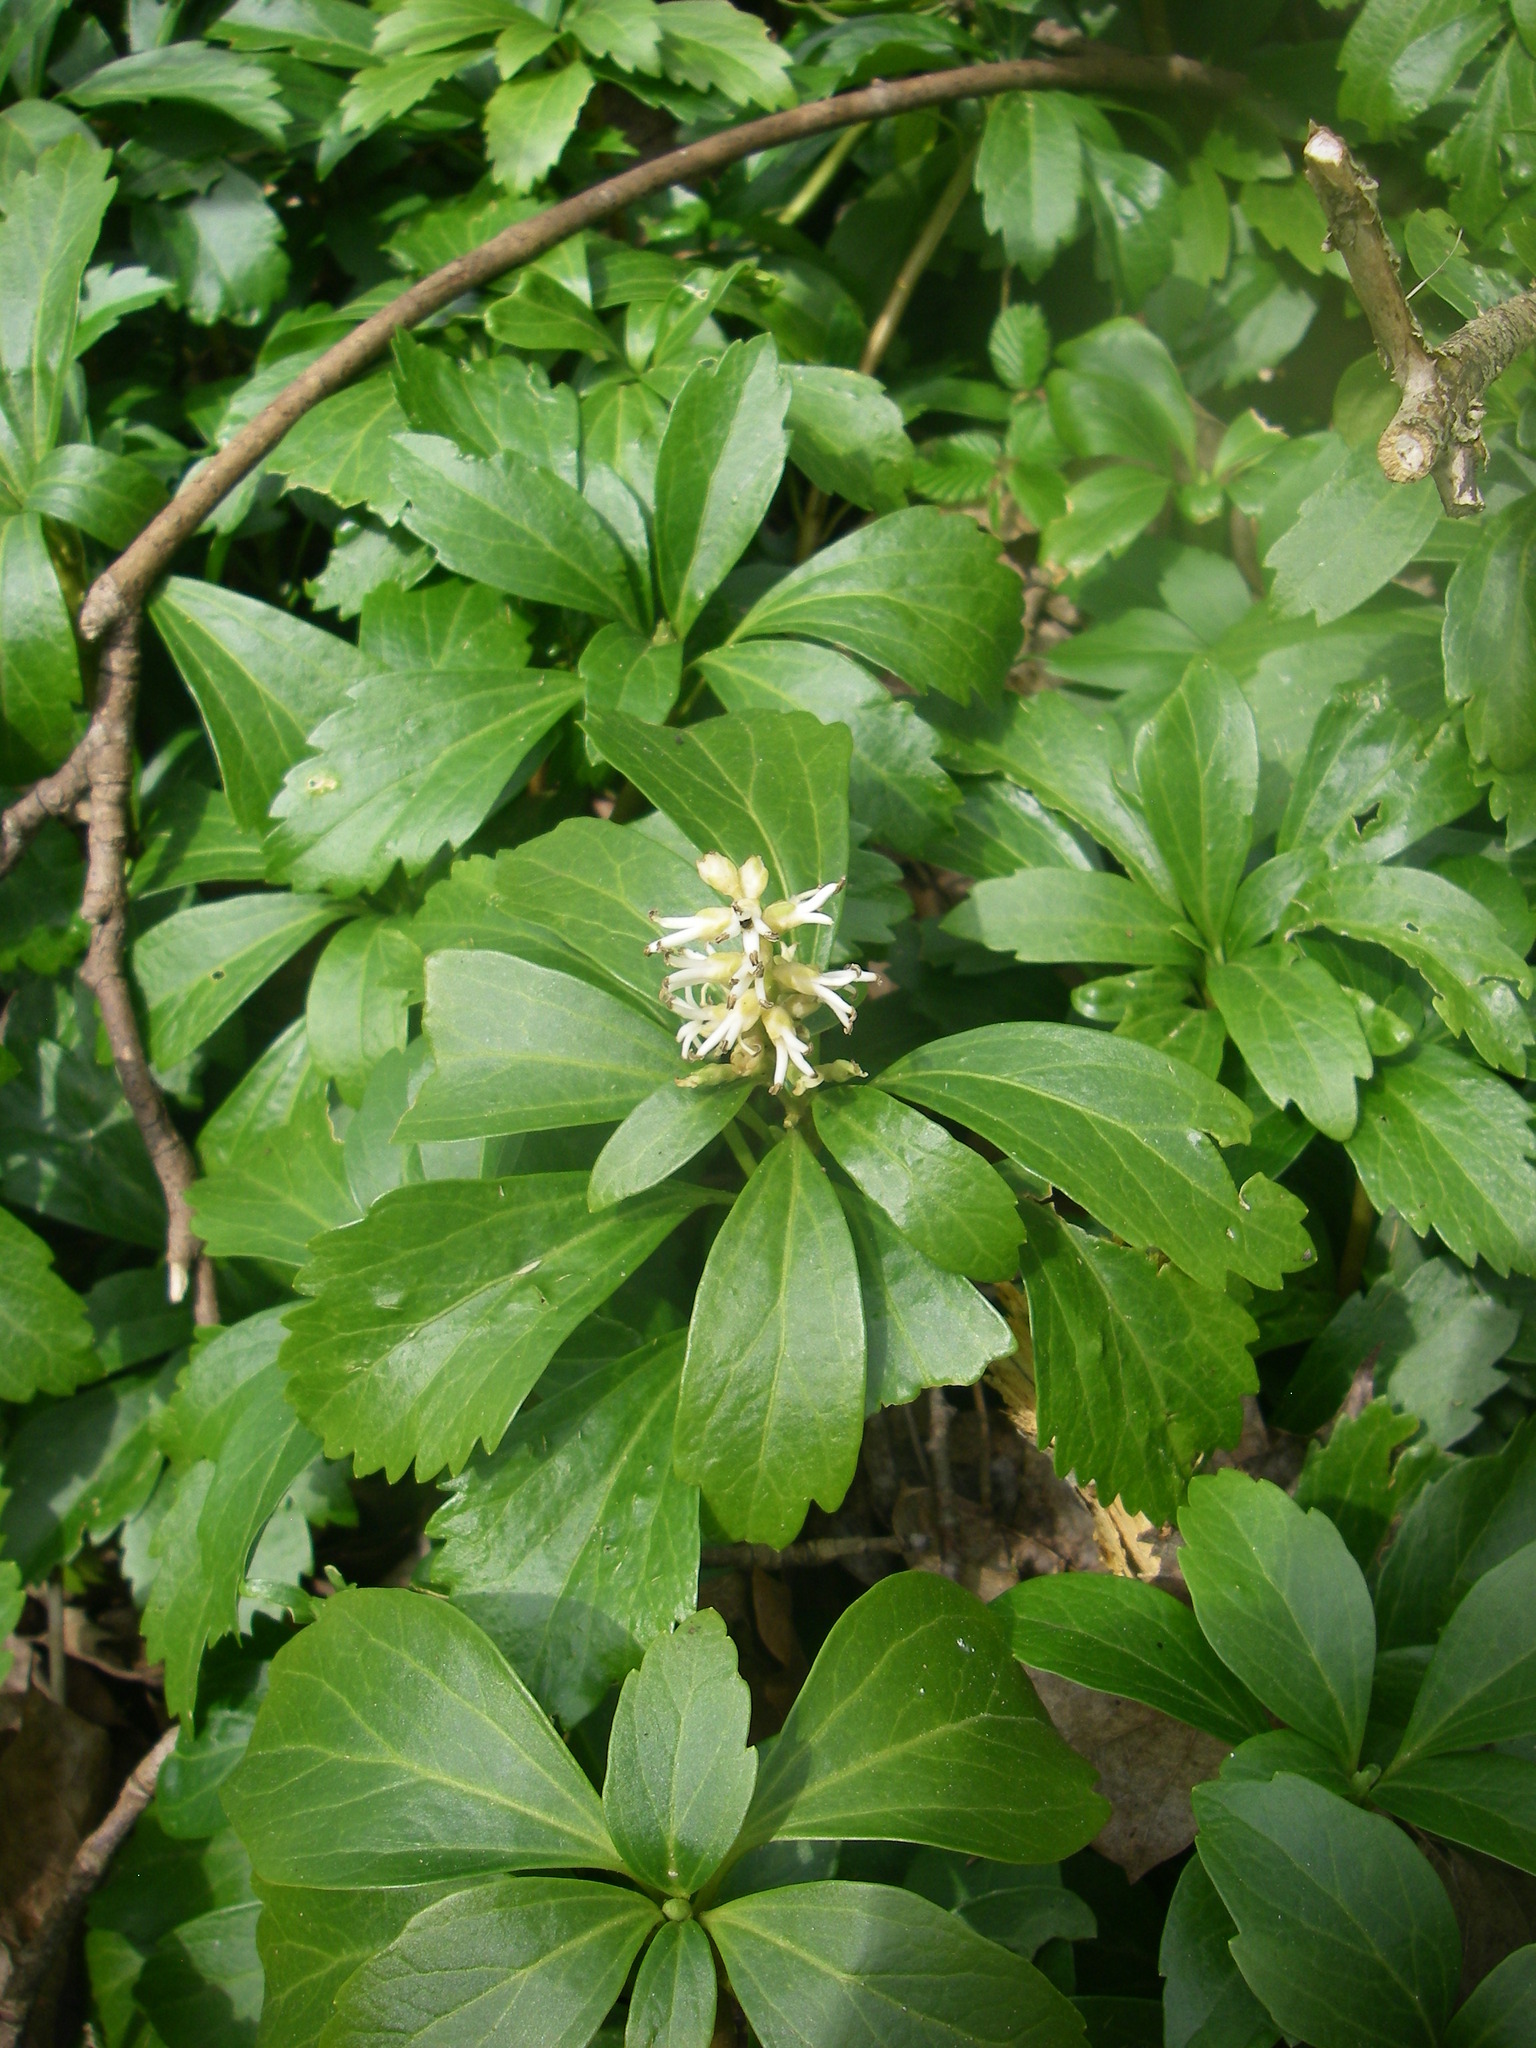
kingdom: Plantae
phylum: Tracheophyta
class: Magnoliopsida
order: Buxales
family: Buxaceae
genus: Pachysandra
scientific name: Pachysandra terminalis
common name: Japanese pachysandra
